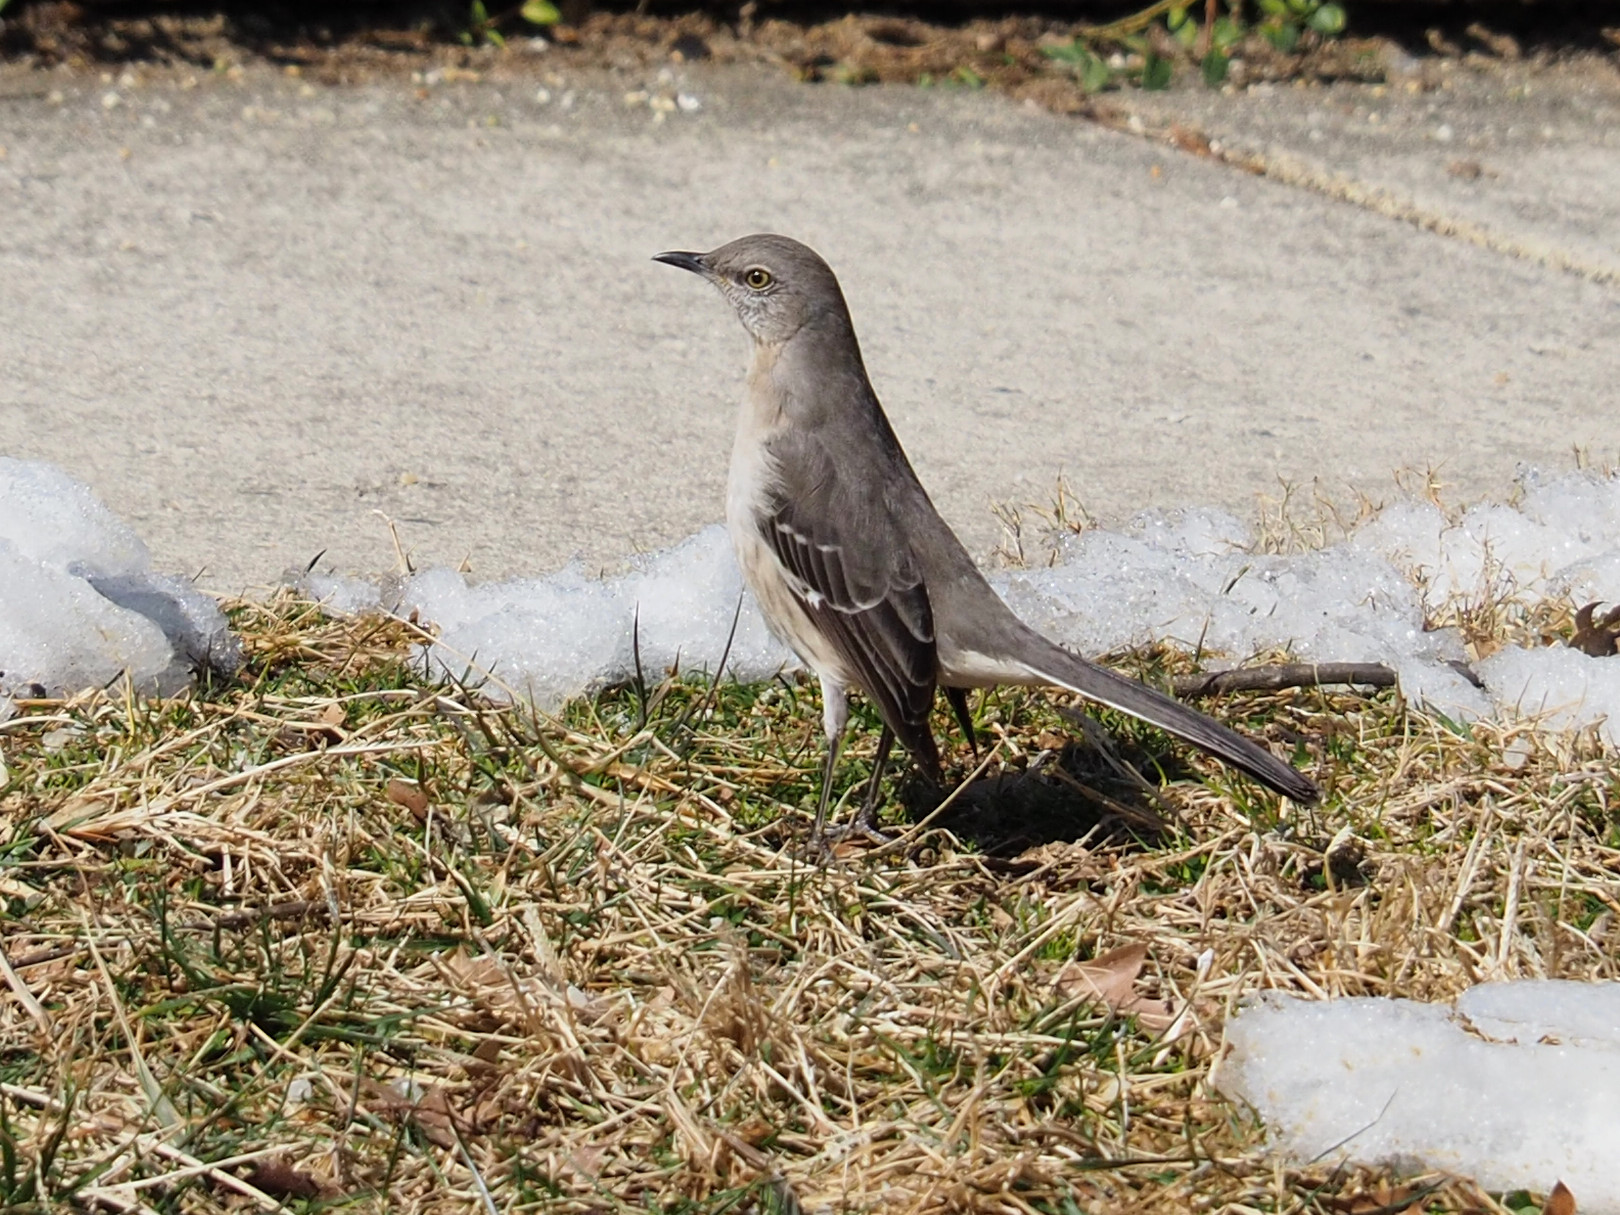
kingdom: Animalia
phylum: Chordata
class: Aves
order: Passeriformes
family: Mimidae
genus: Mimus
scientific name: Mimus polyglottos
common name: Northern mockingbird
